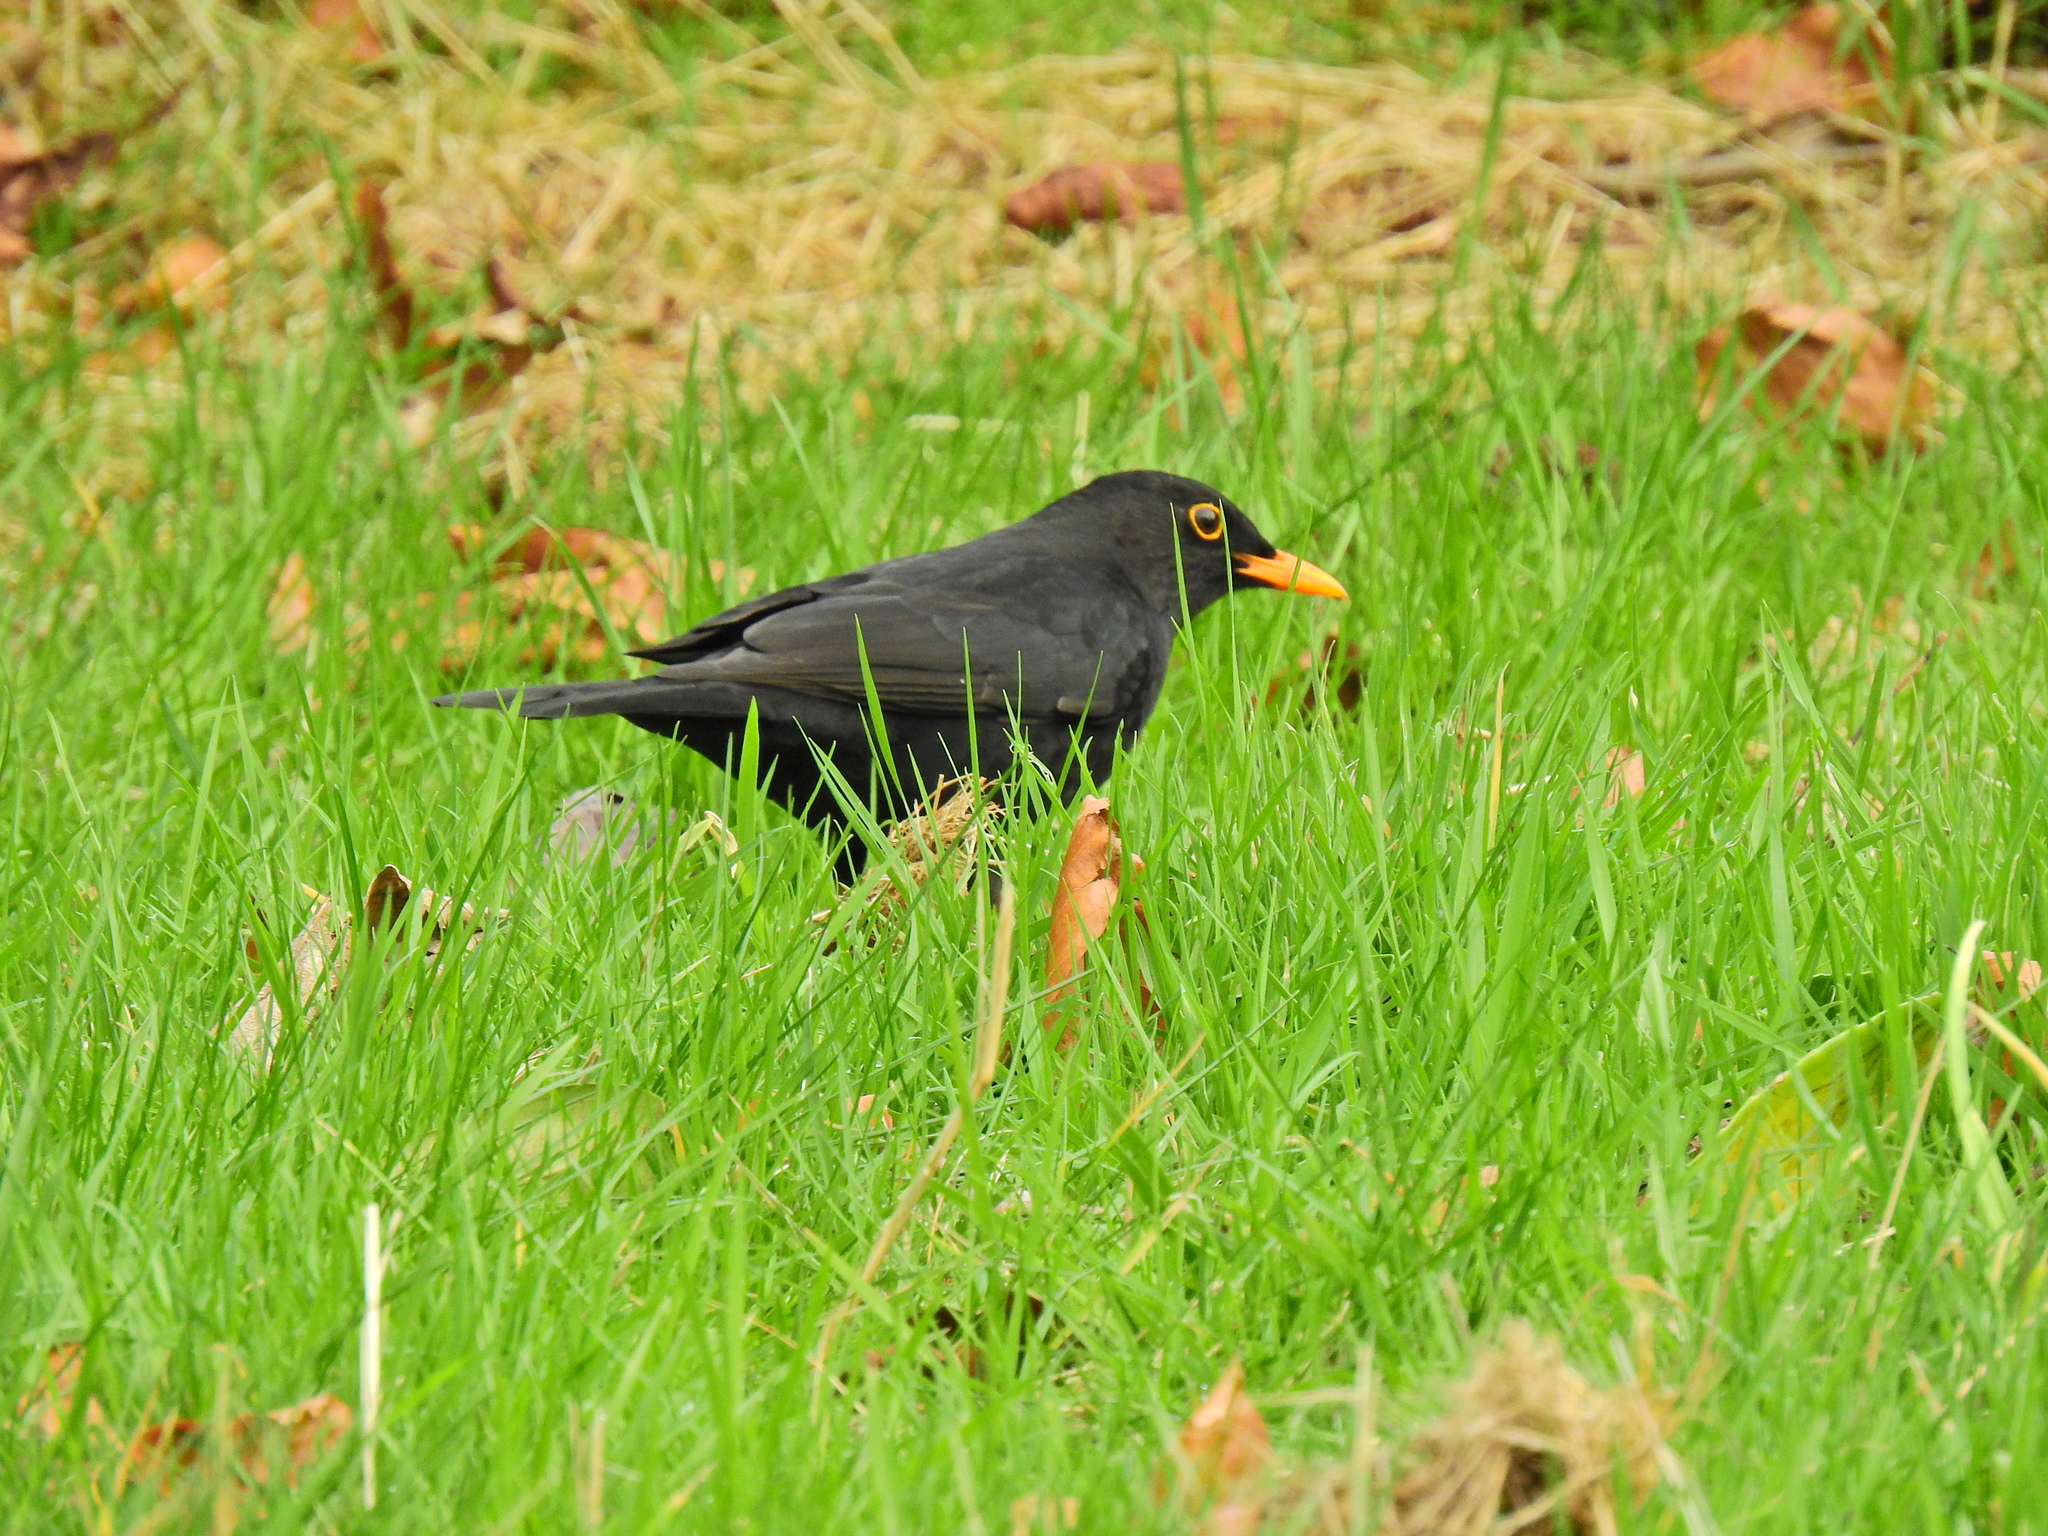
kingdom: Animalia
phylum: Chordata
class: Aves
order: Passeriformes
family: Turdidae
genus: Turdus
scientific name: Turdus merula
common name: Common blackbird
